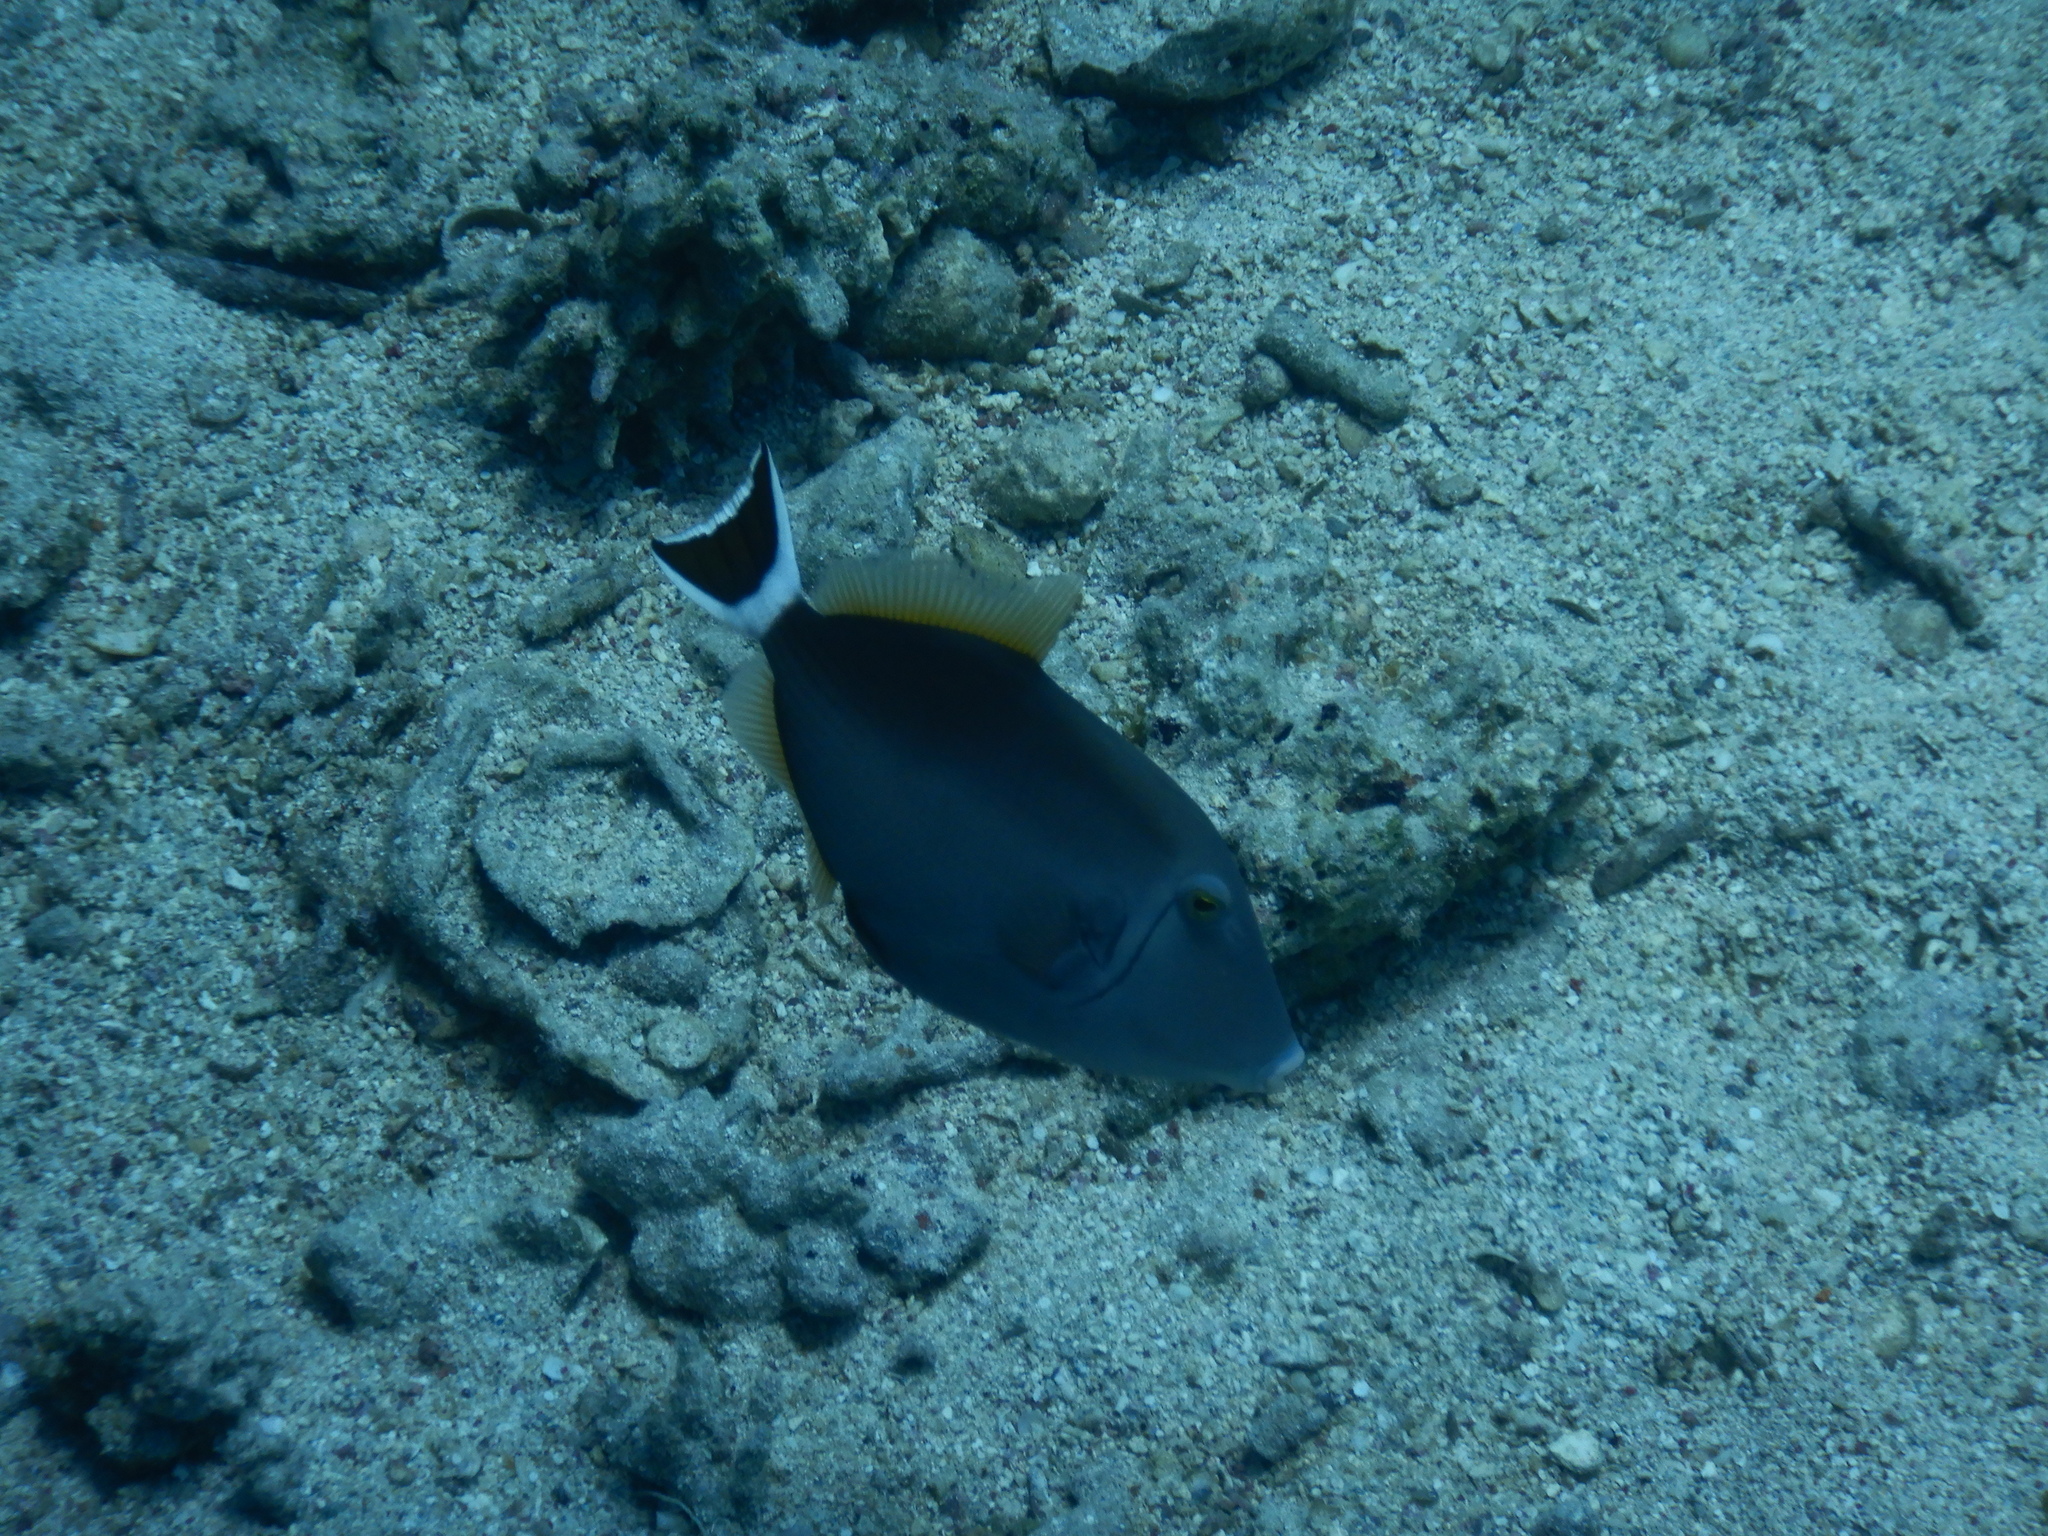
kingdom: Animalia
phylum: Chordata
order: Tetraodontiformes
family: Balistidae
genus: Sufflamen
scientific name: Sufflamen albicaudatum
